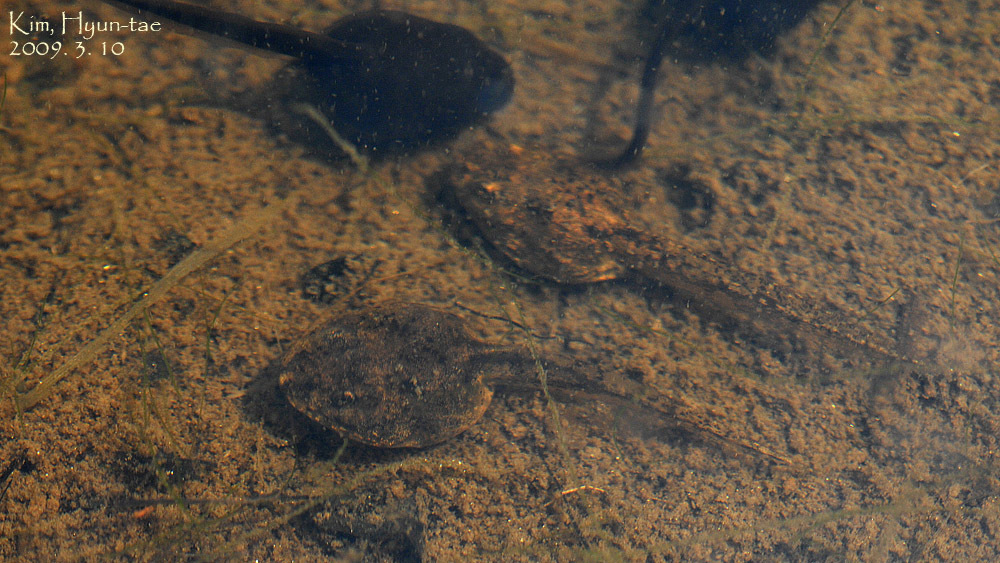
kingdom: Animalia
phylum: Chordata
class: Amphibia
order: Anura
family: Ranidae
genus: Rana
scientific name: Rana coreana
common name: Korean brown frog
